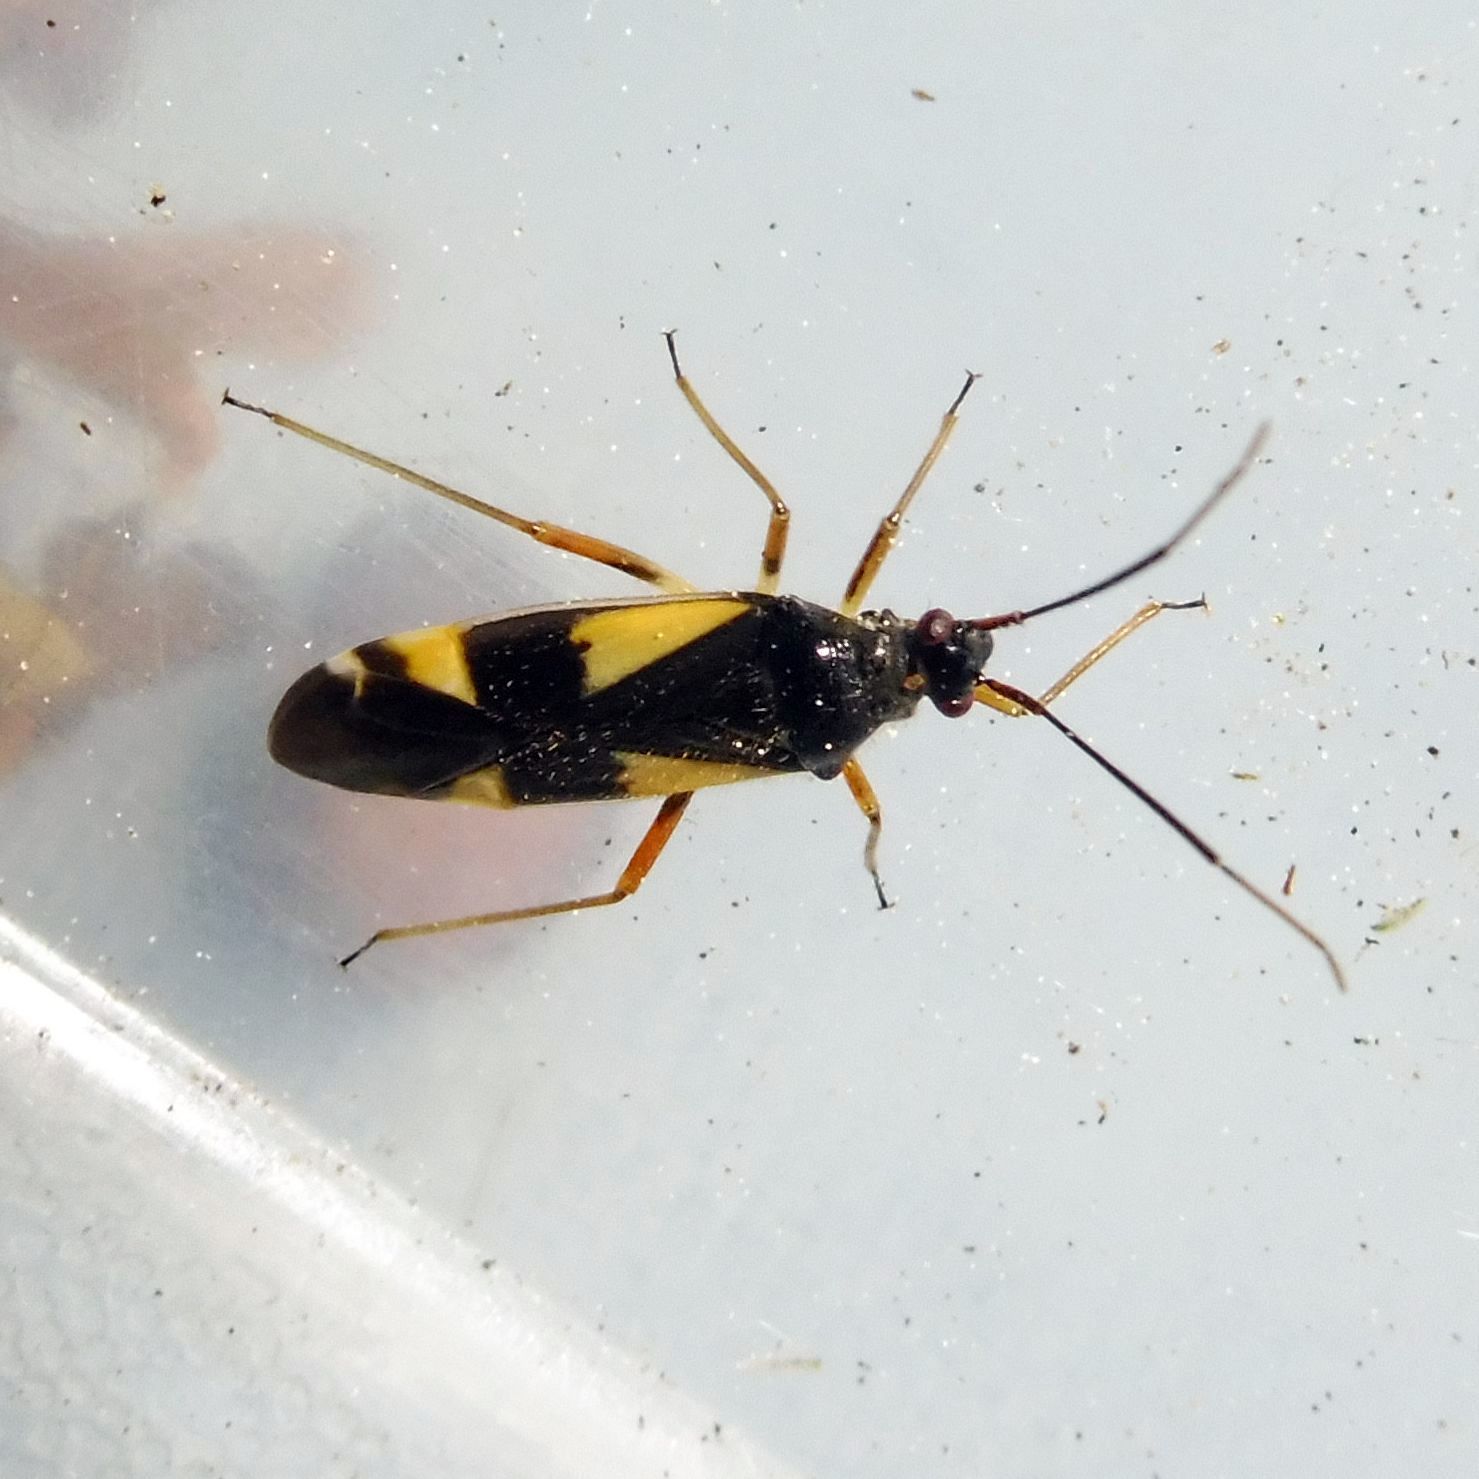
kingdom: Animalia
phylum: Arthropoda
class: Insecta
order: Hemiptera
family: Miridae
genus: Dryophilocoris
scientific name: Dryophilocoris flavoquadrimaculatus
